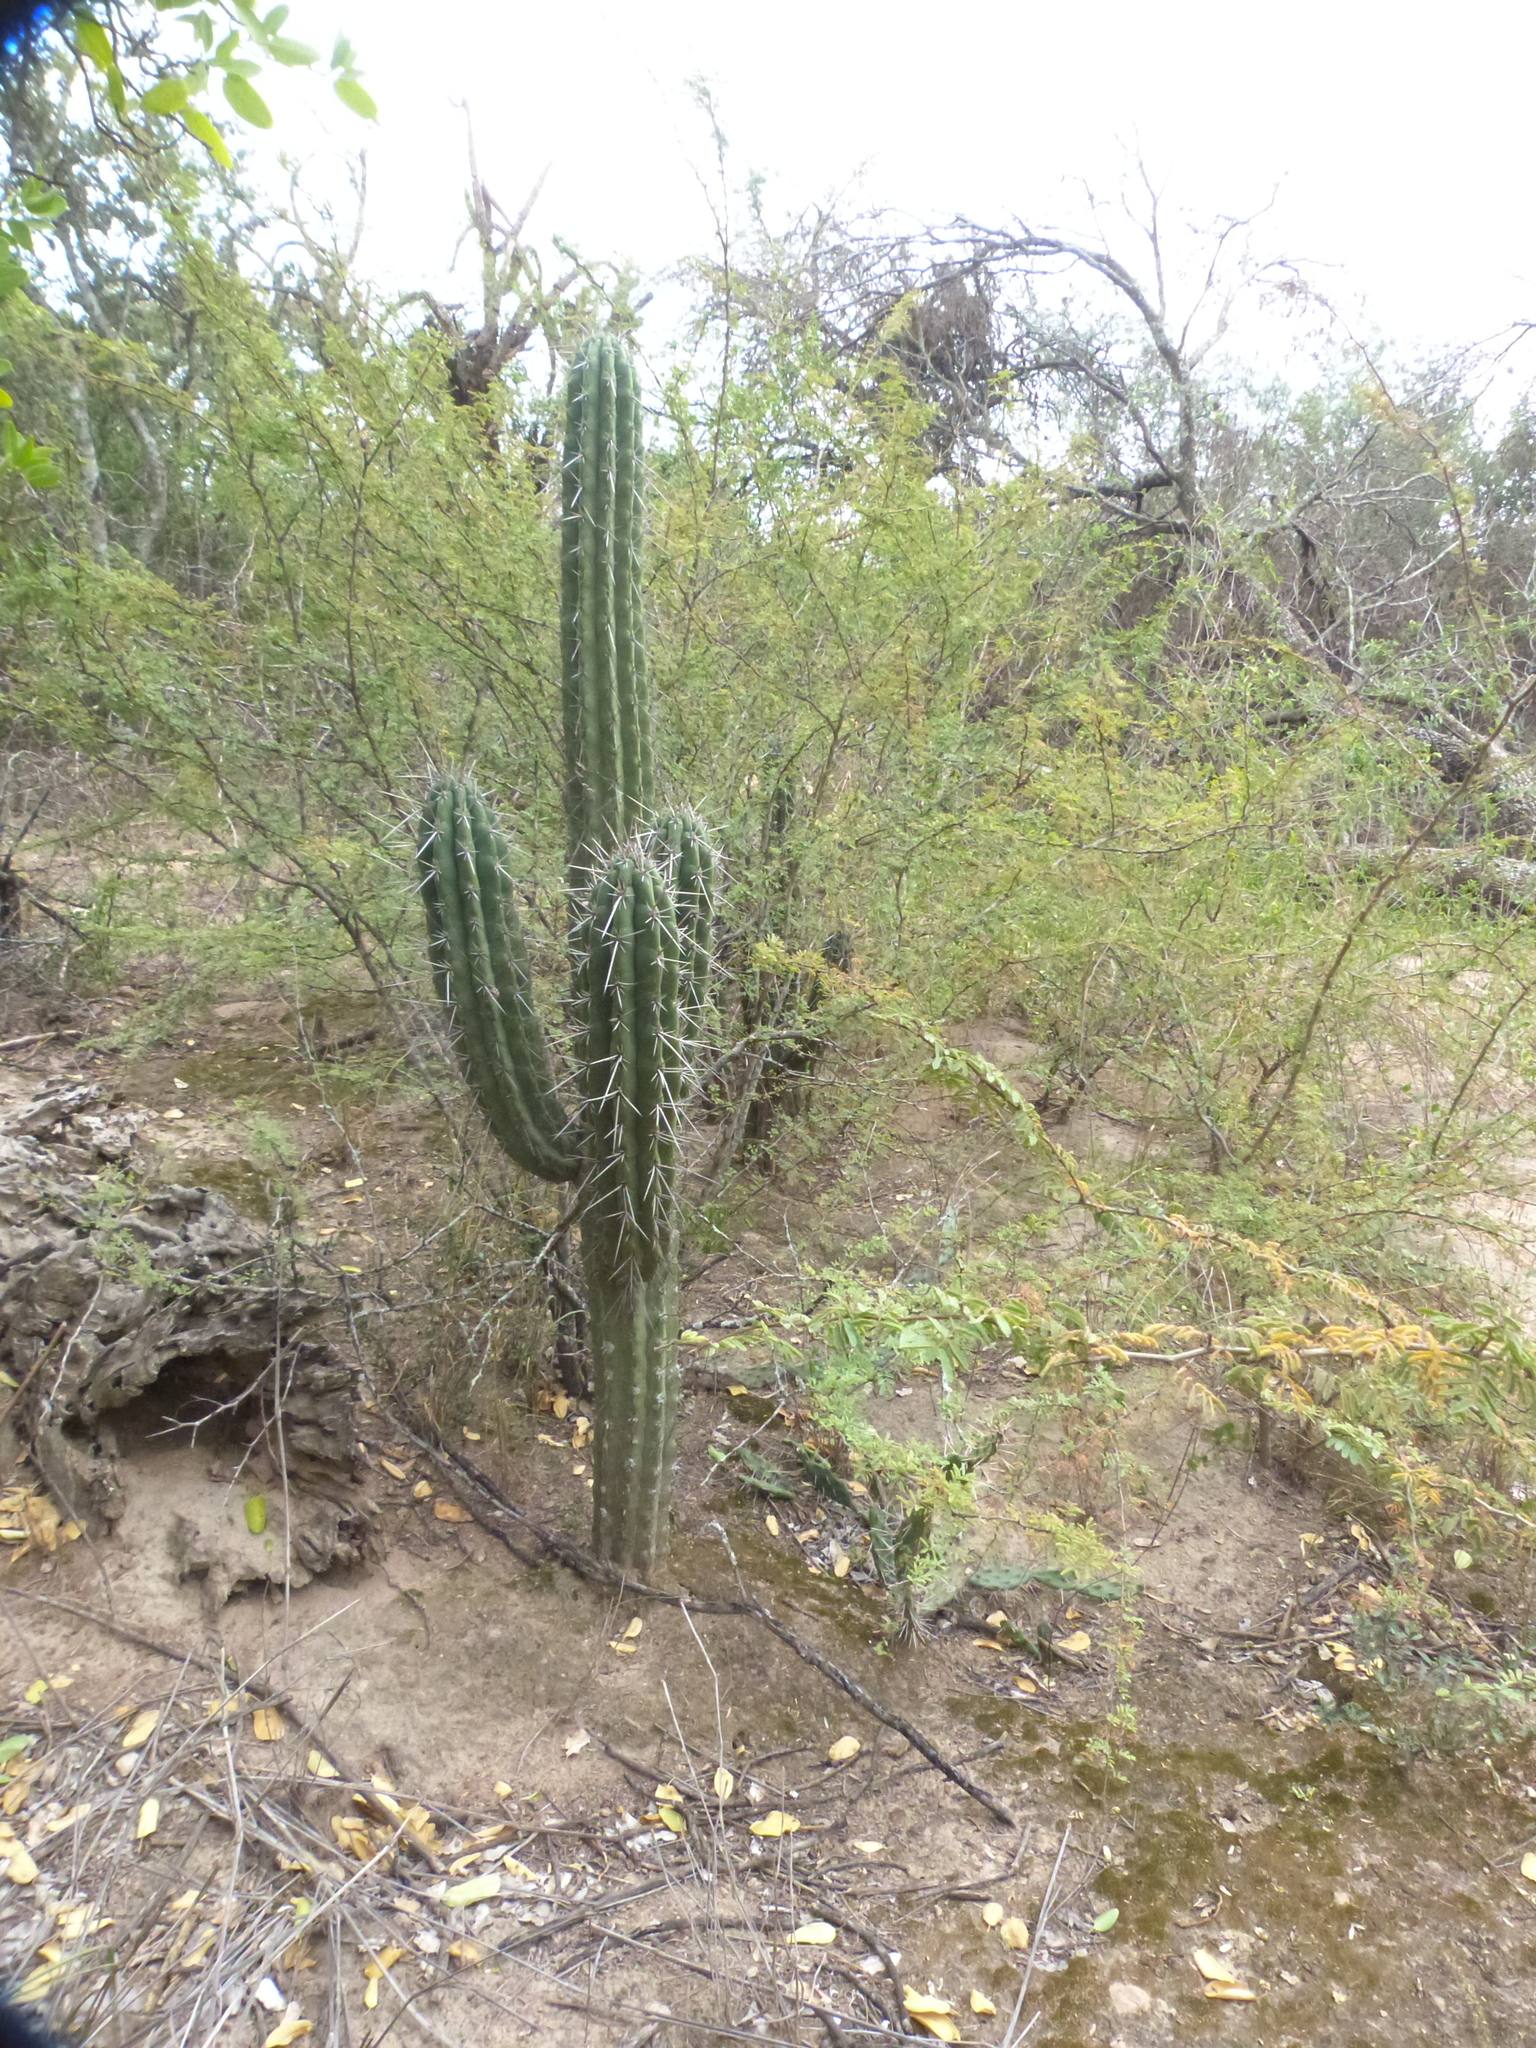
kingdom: Plantae
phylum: Tracheophyta
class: Magnoliopsida
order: Caryophyllales
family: Cactaceae
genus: Stetsonia
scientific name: Stetsonia coryne
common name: Toothpick cactus
